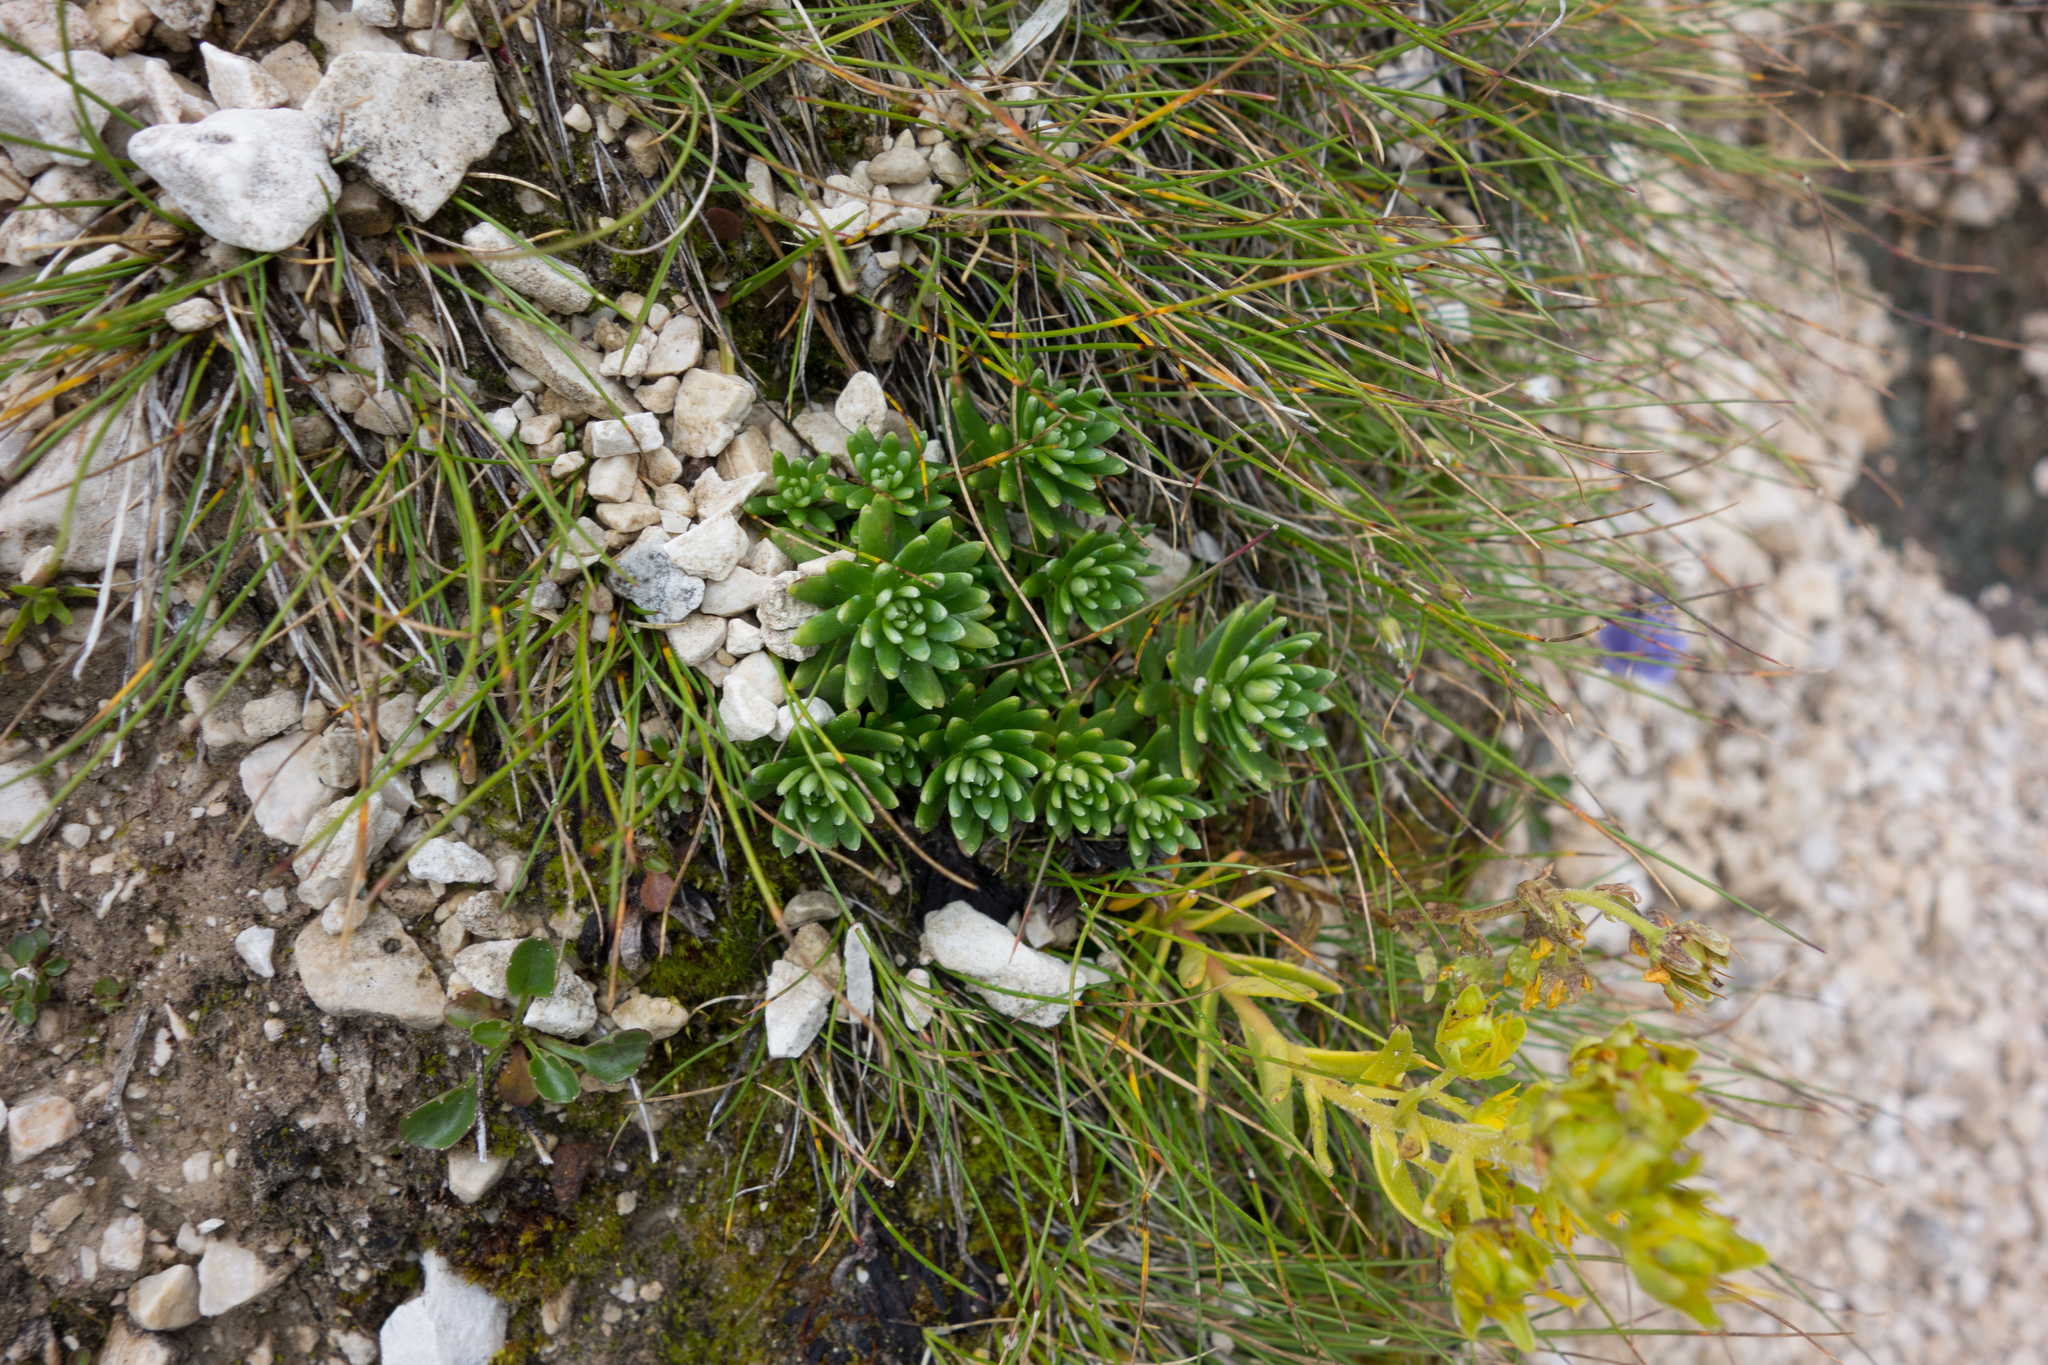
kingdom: Plantae
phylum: Tracheophyta
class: Magnoliopsida
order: Saxifragales
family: Saxifragaceae
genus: Saxifraga
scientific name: Saxifraga aizoides
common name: Yellow mountain saxifrage
